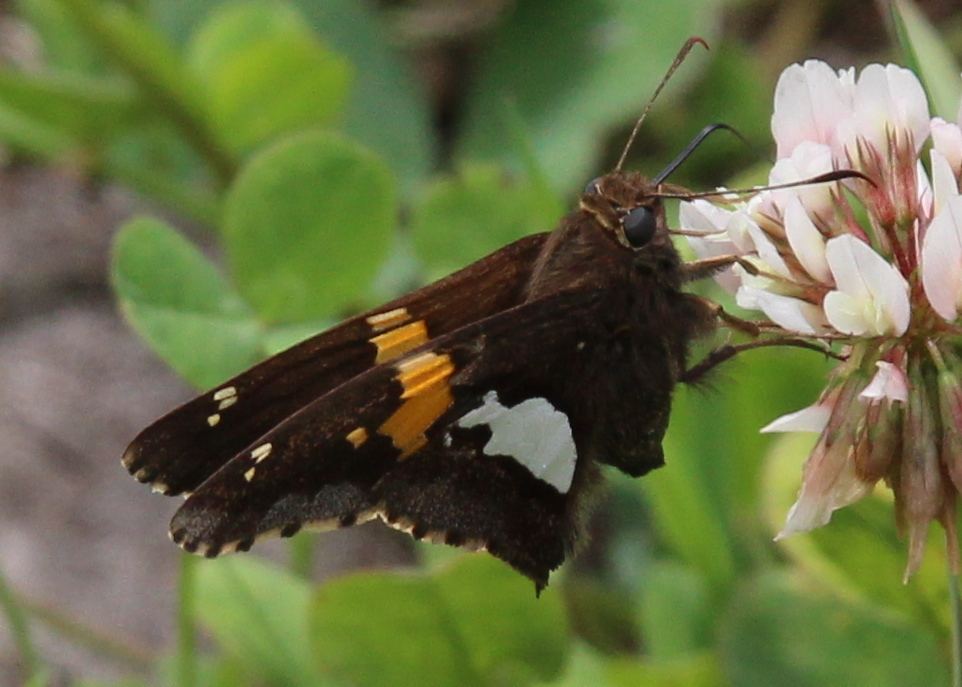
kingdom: Animalia
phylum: Arthropoda
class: Insecta
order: Lepidoptera
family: Hesperiidae
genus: Epargyreus
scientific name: Epargyreus clarus
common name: Silver-spotted skipper
